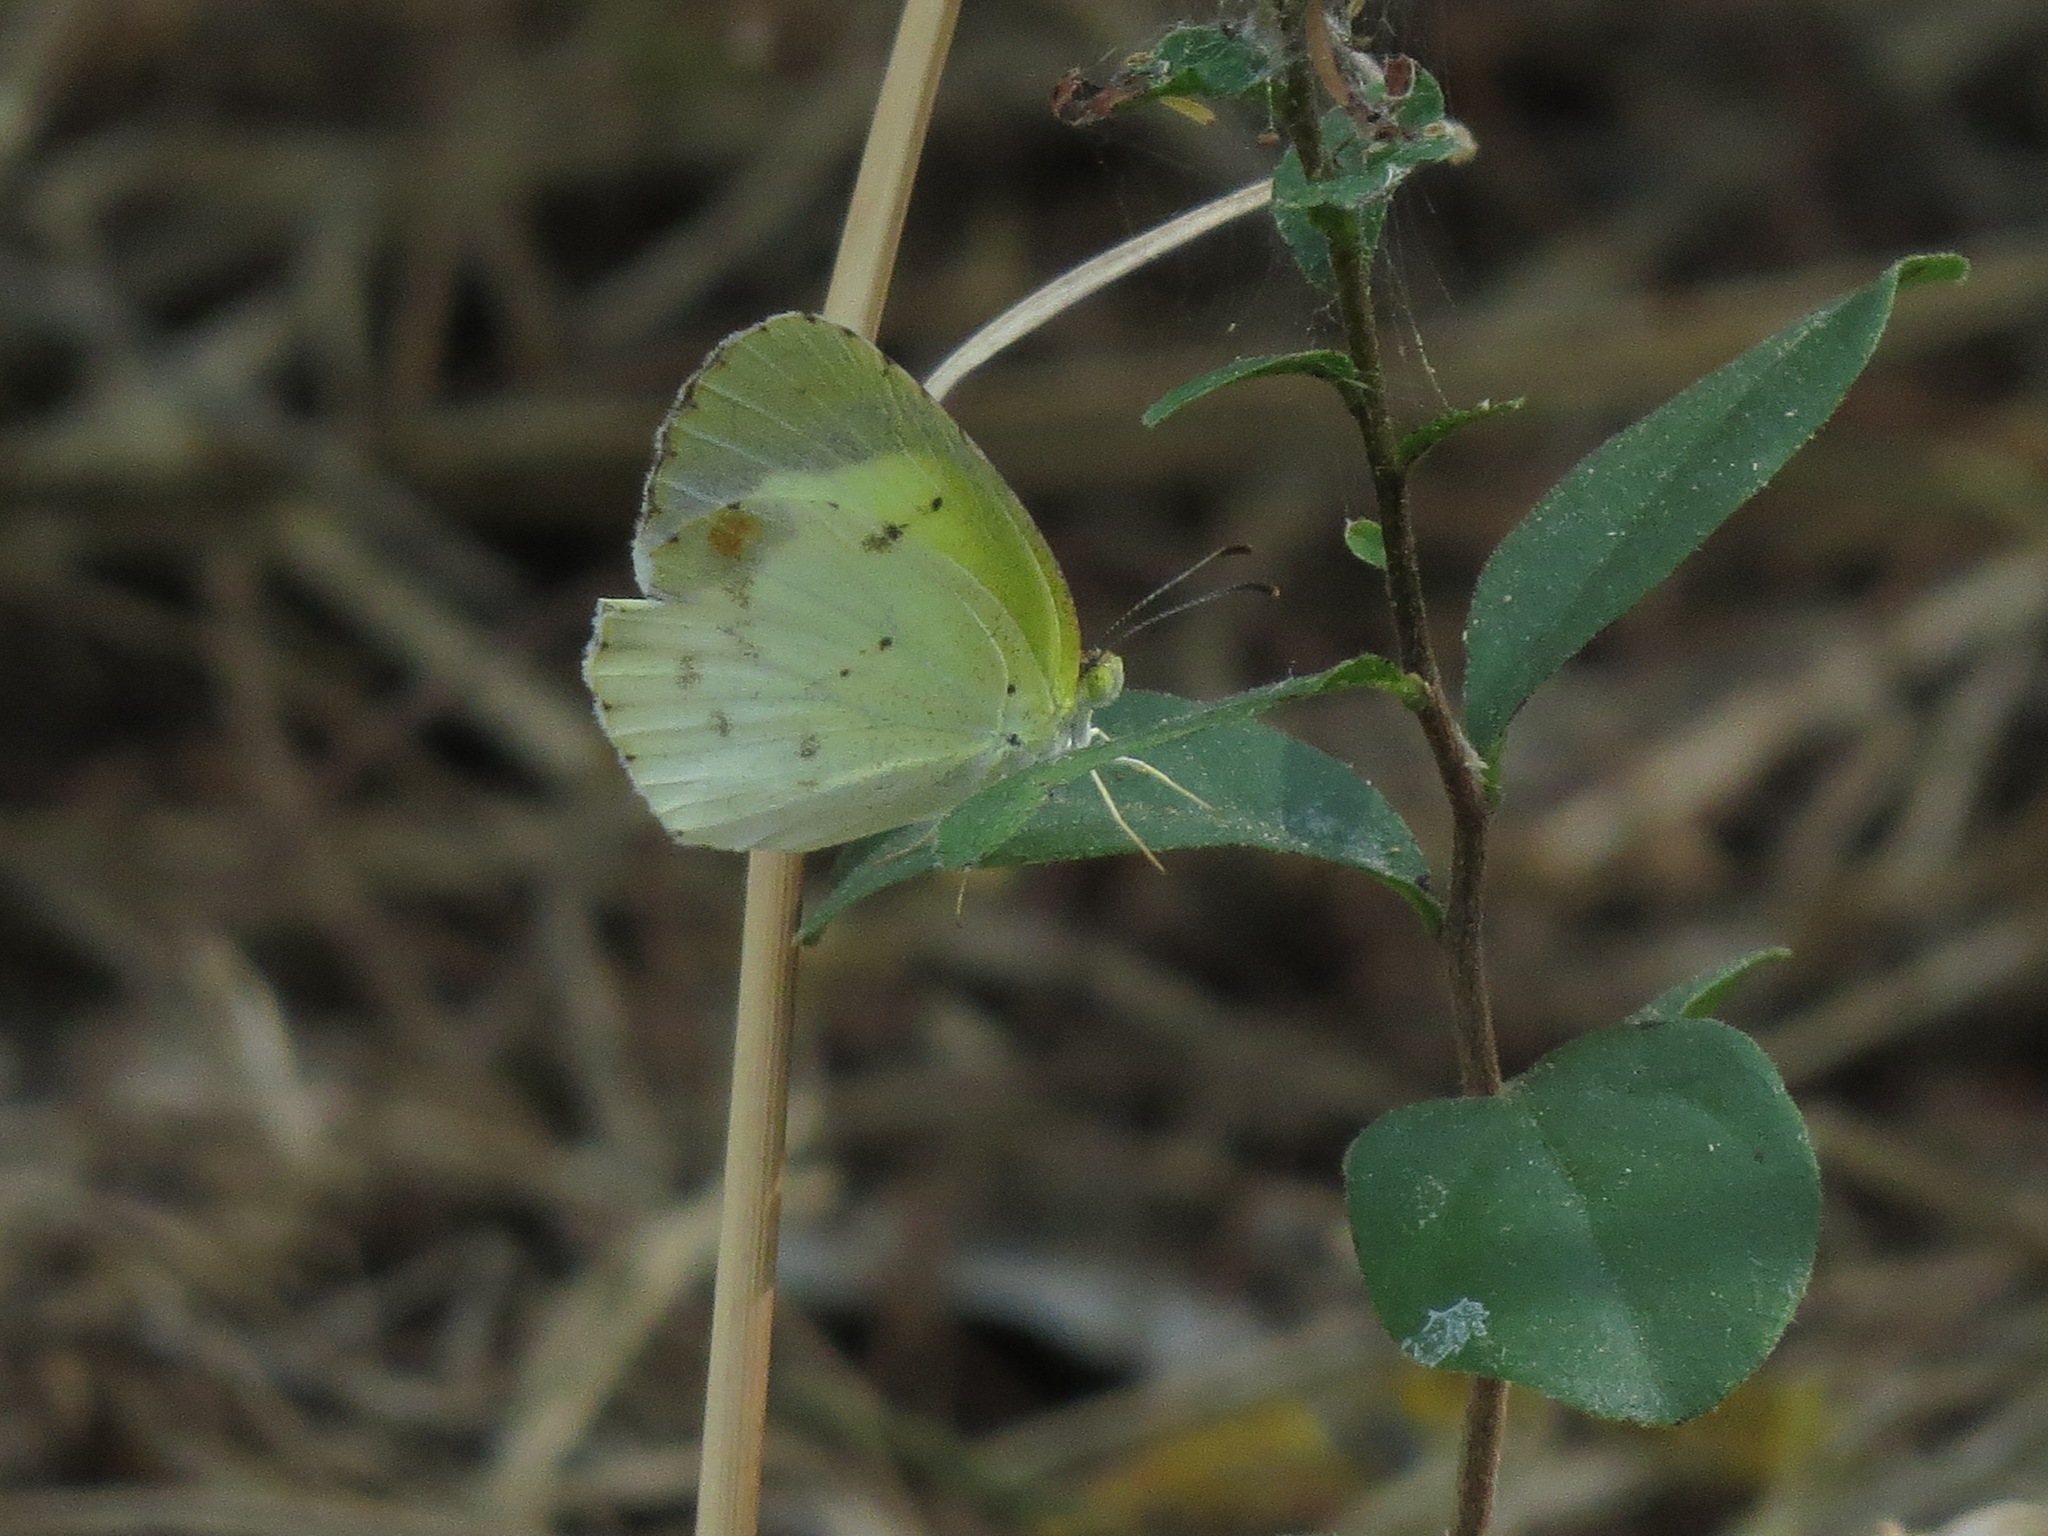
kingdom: Animalia
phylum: Arthropoda
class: Insecta
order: Lepidoptera
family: Pieridae
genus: Pyrisitia
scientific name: Pyrisitia lisa
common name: Little yellow
